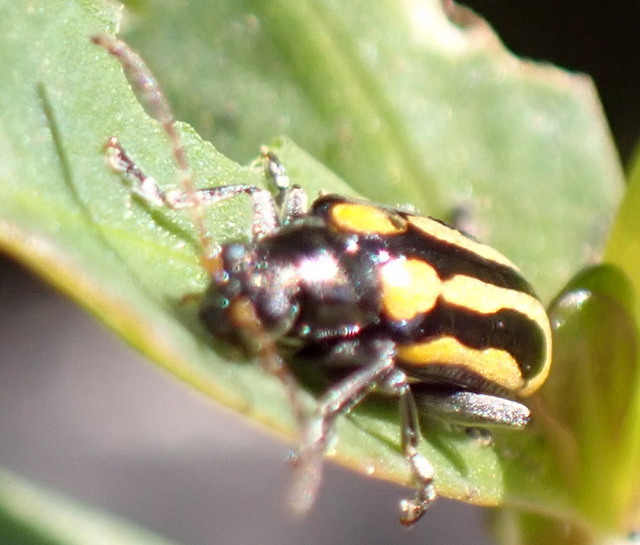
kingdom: Animalia
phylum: Arthropoda
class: Insecta
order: Coleoptera
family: Chrysomelidae
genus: Agasicles
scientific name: Agasicles hygrophila
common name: Alligatorweed flea beetle
